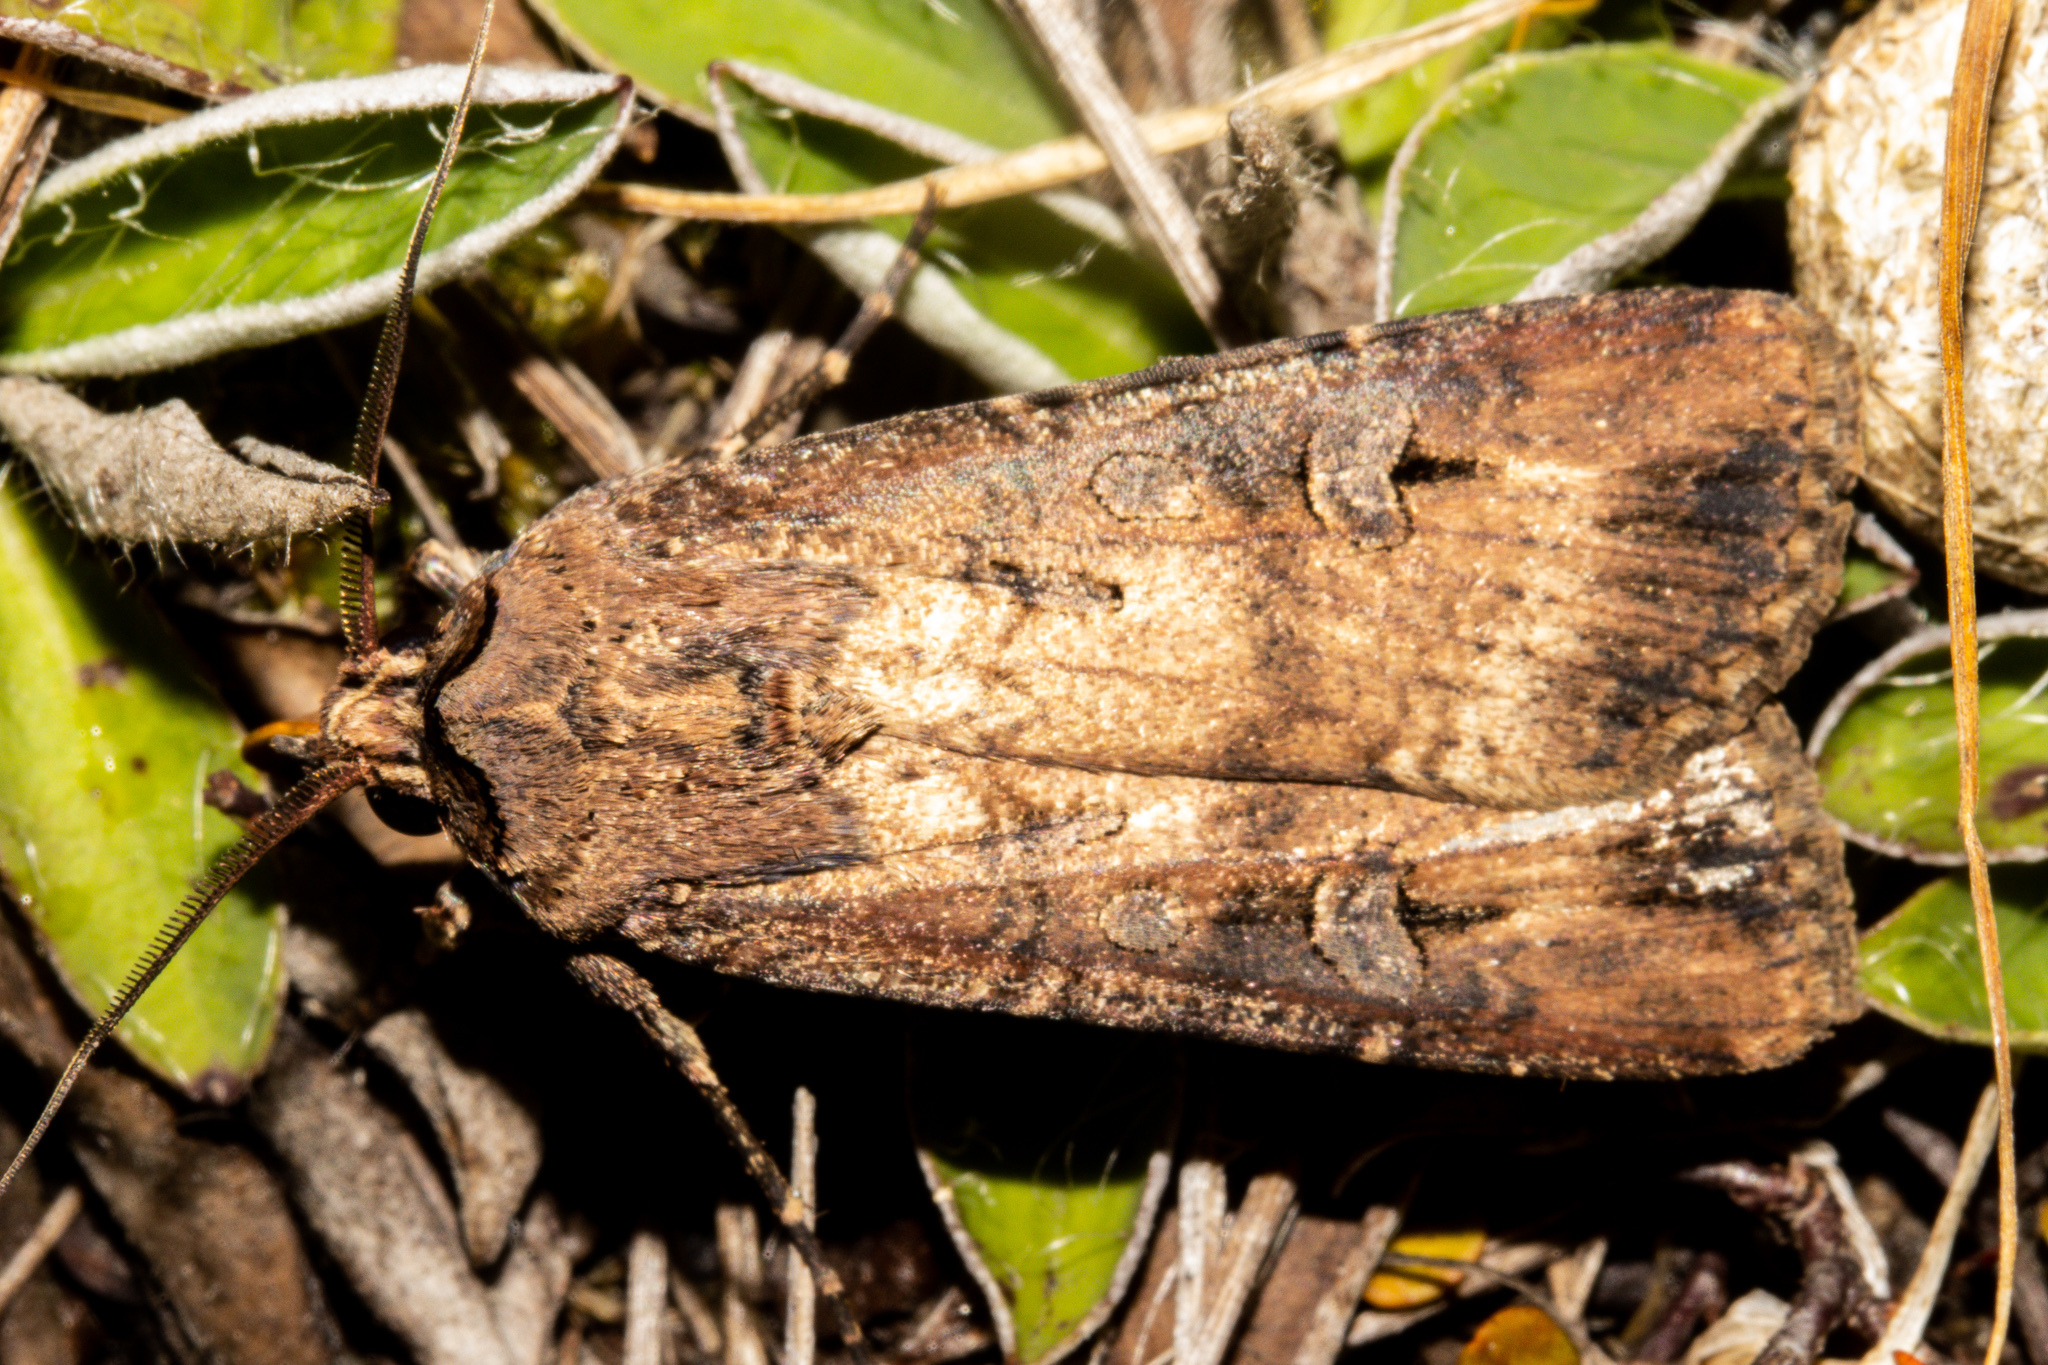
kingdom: Animalia
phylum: Arthropoda
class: Insecta
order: Lepidoptera
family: Noctuidae
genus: Agrotis
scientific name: Agrotis ipsilon
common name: Dark sword-grass
